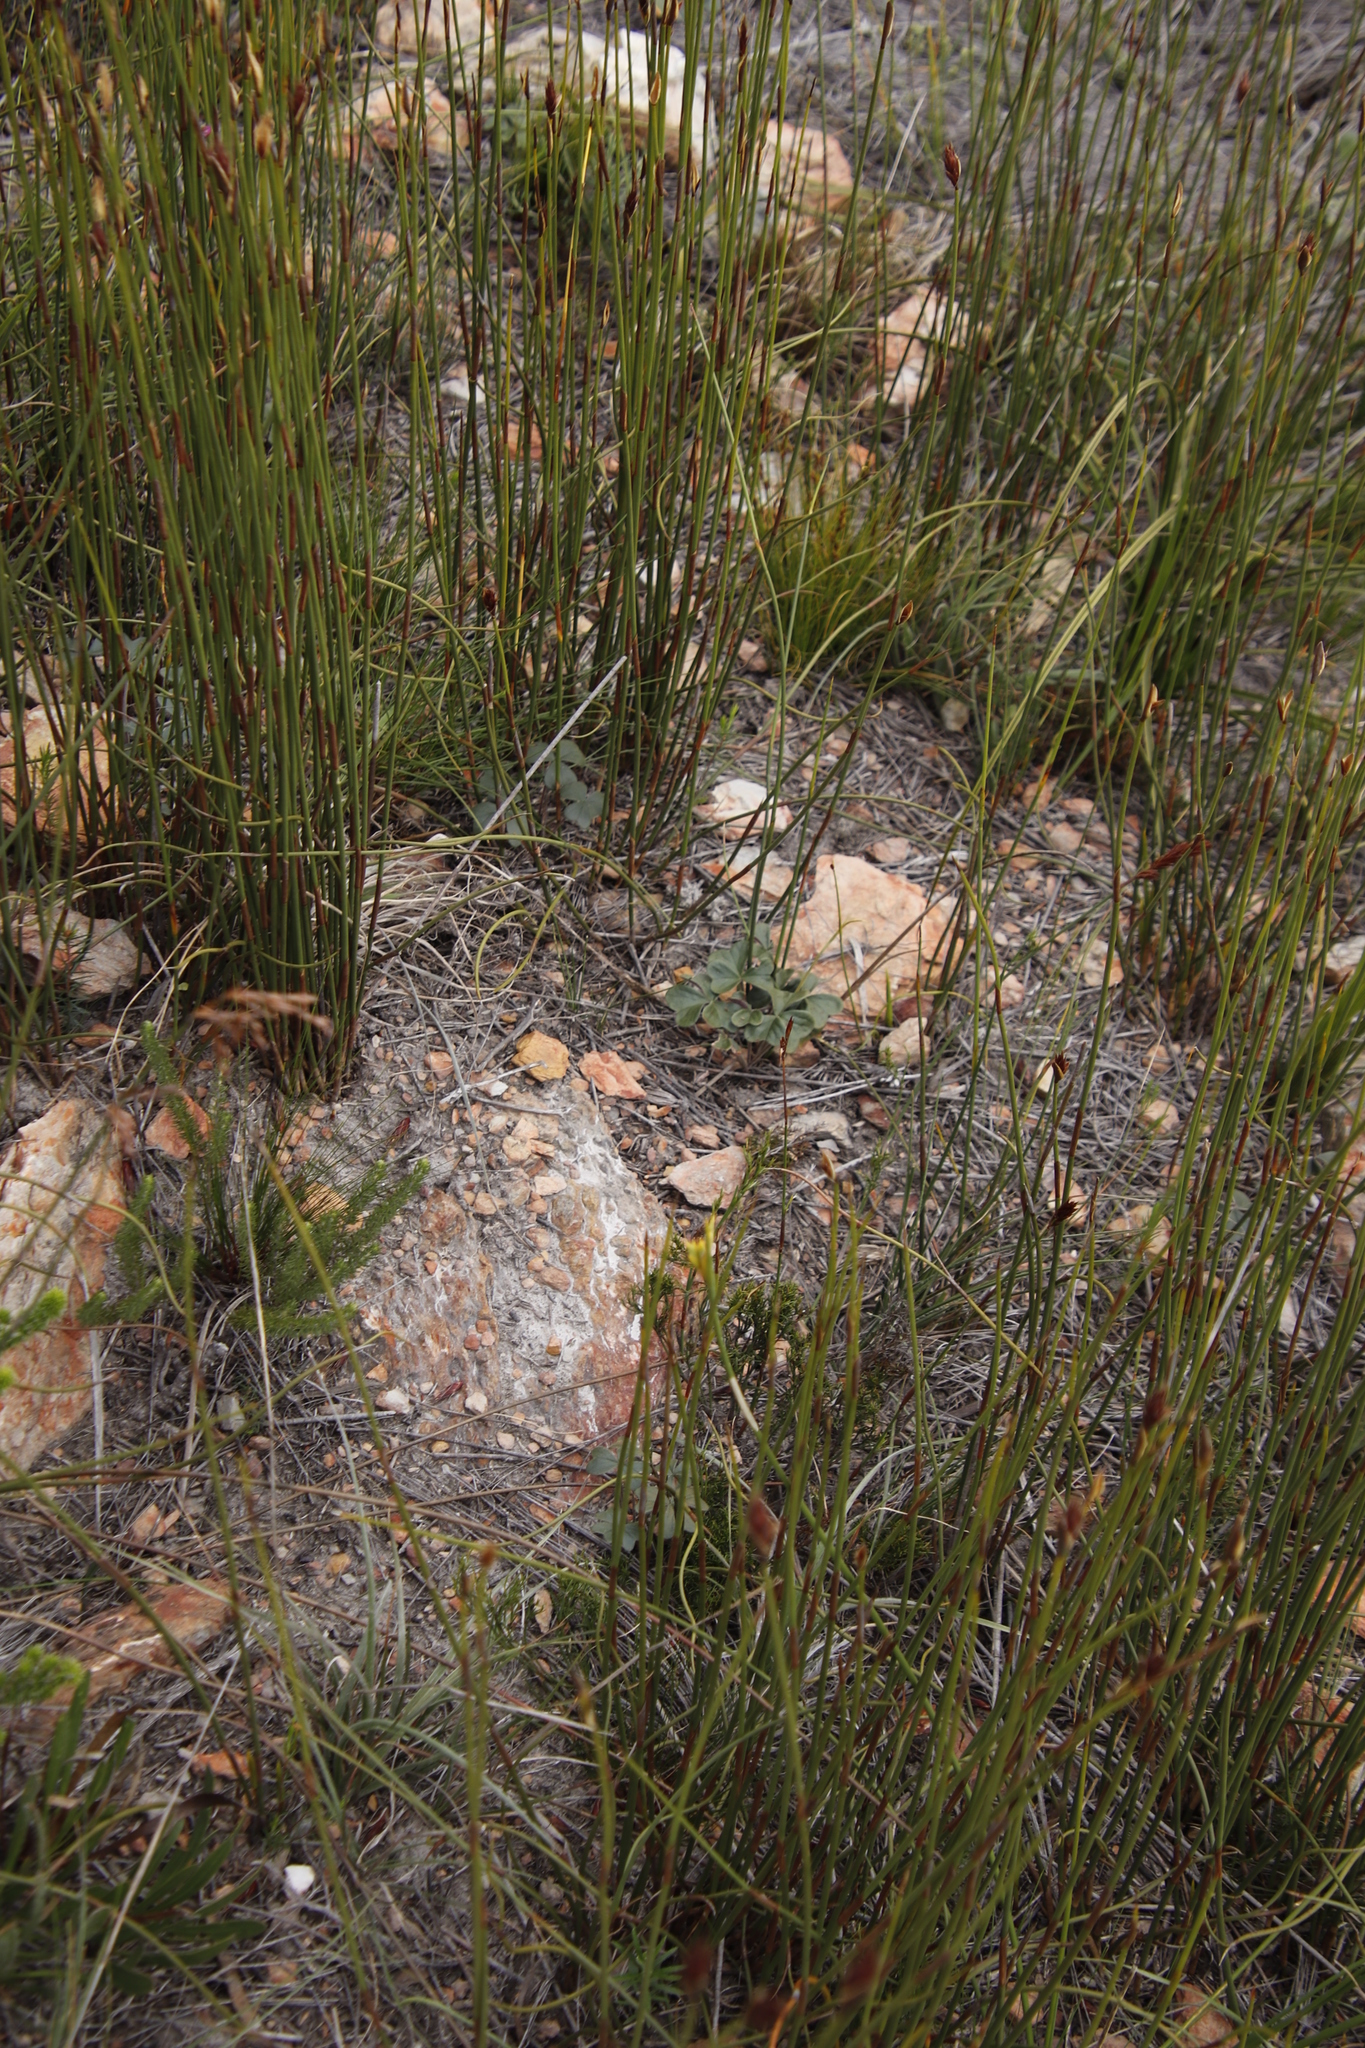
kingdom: Plantae
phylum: Tracheophyta
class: Magnoliopsida
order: Oxalidales
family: Oxalidaceae
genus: Oxalis
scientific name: Oxalis truncatula
